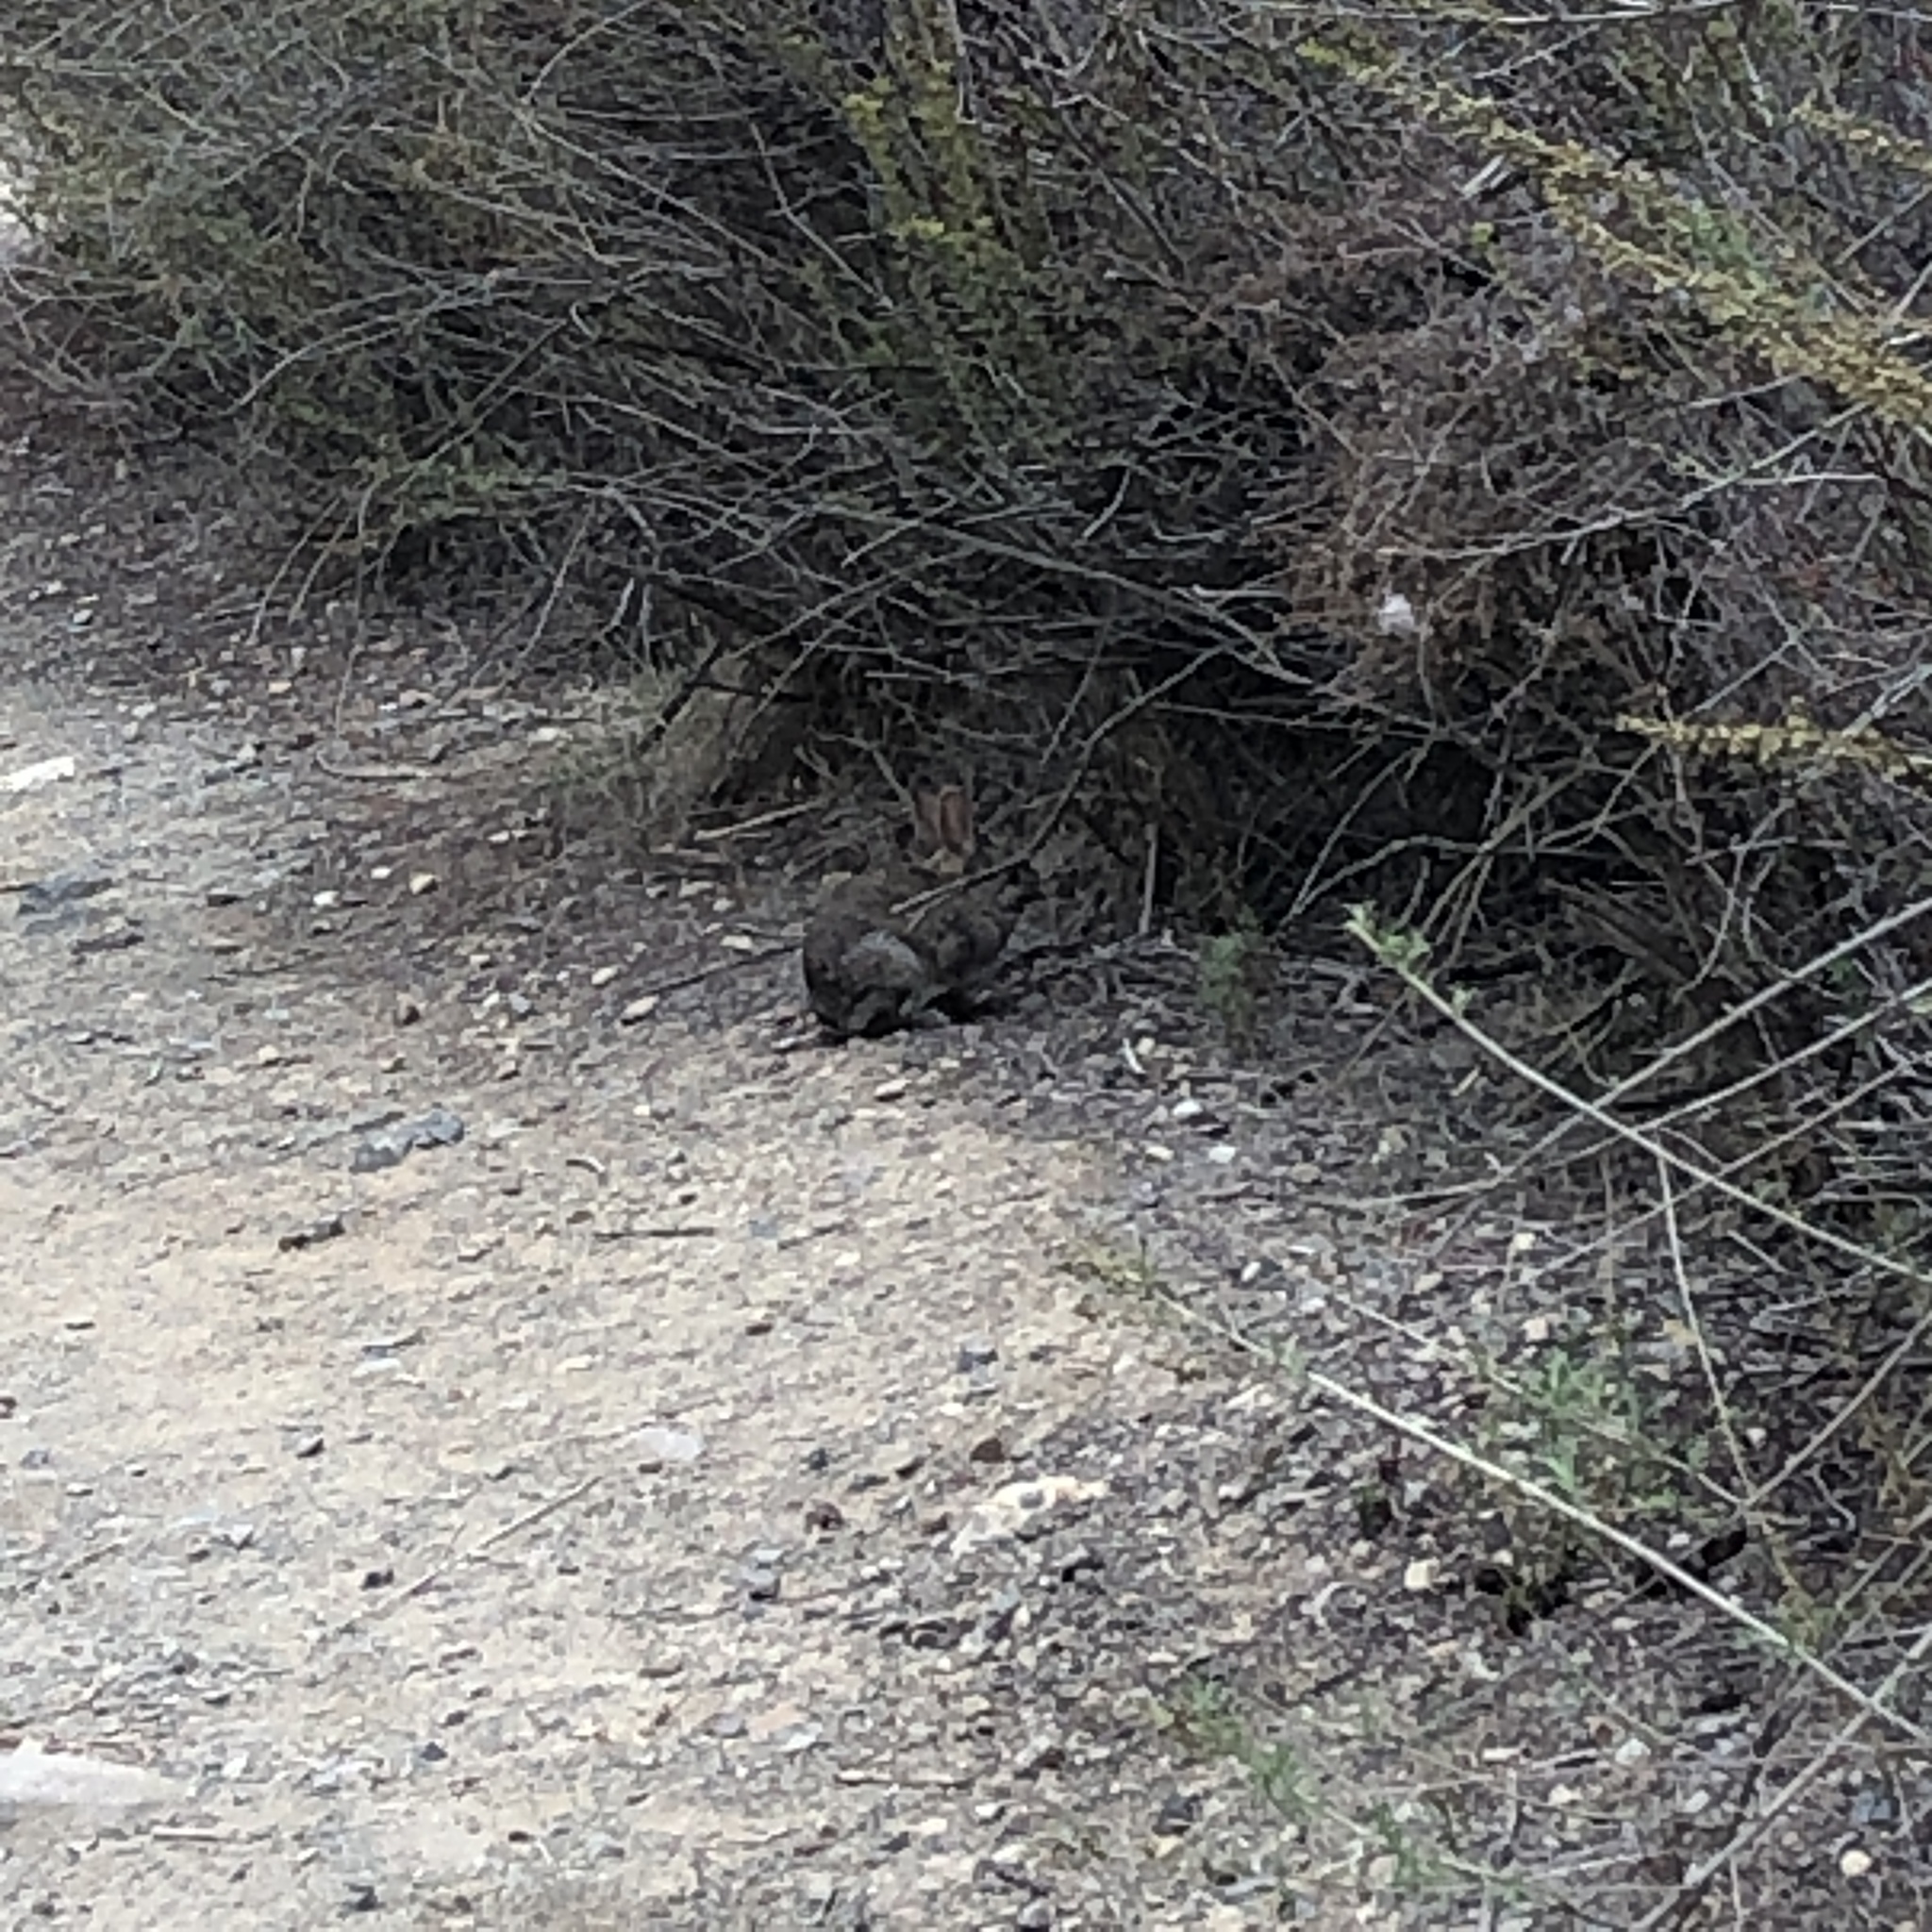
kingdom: Animalia
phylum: Chordata
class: Mammalia
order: Lagomorpha
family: Leporidae
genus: Sylvilagus
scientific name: Sylvilagus audubonii
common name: Desert cottontail
